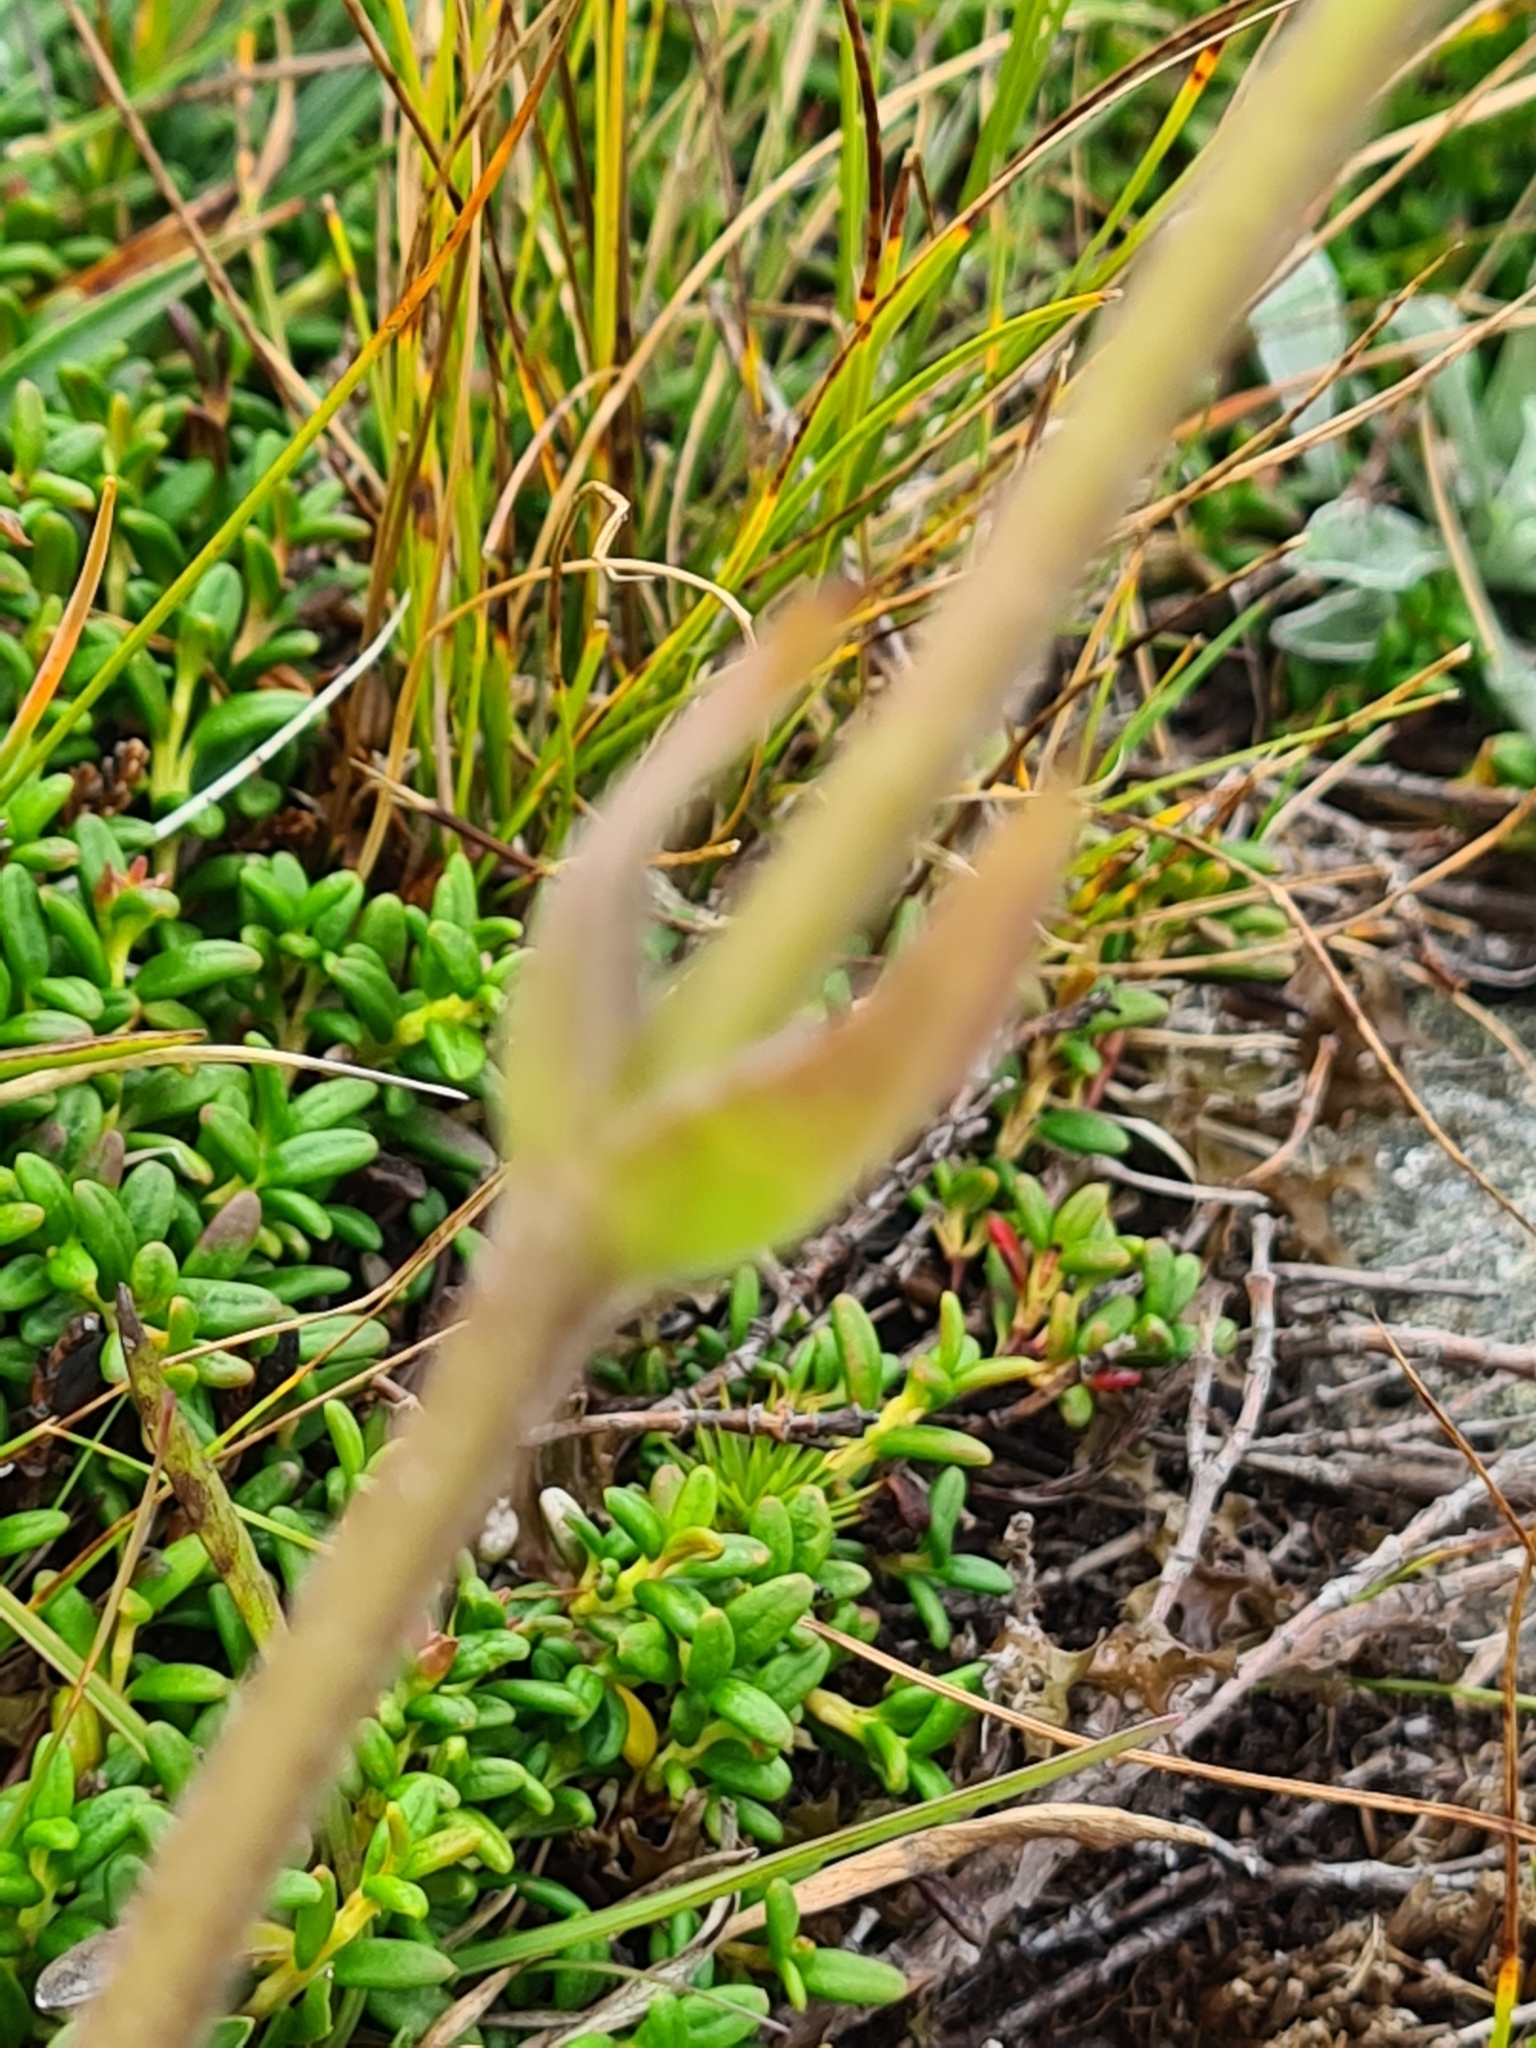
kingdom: Plantae
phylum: Tracheophyta
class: Magnoliopsida
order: Asterales
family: Asteraceae
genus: Arnica
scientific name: Arnica montana
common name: Leopard's bane
